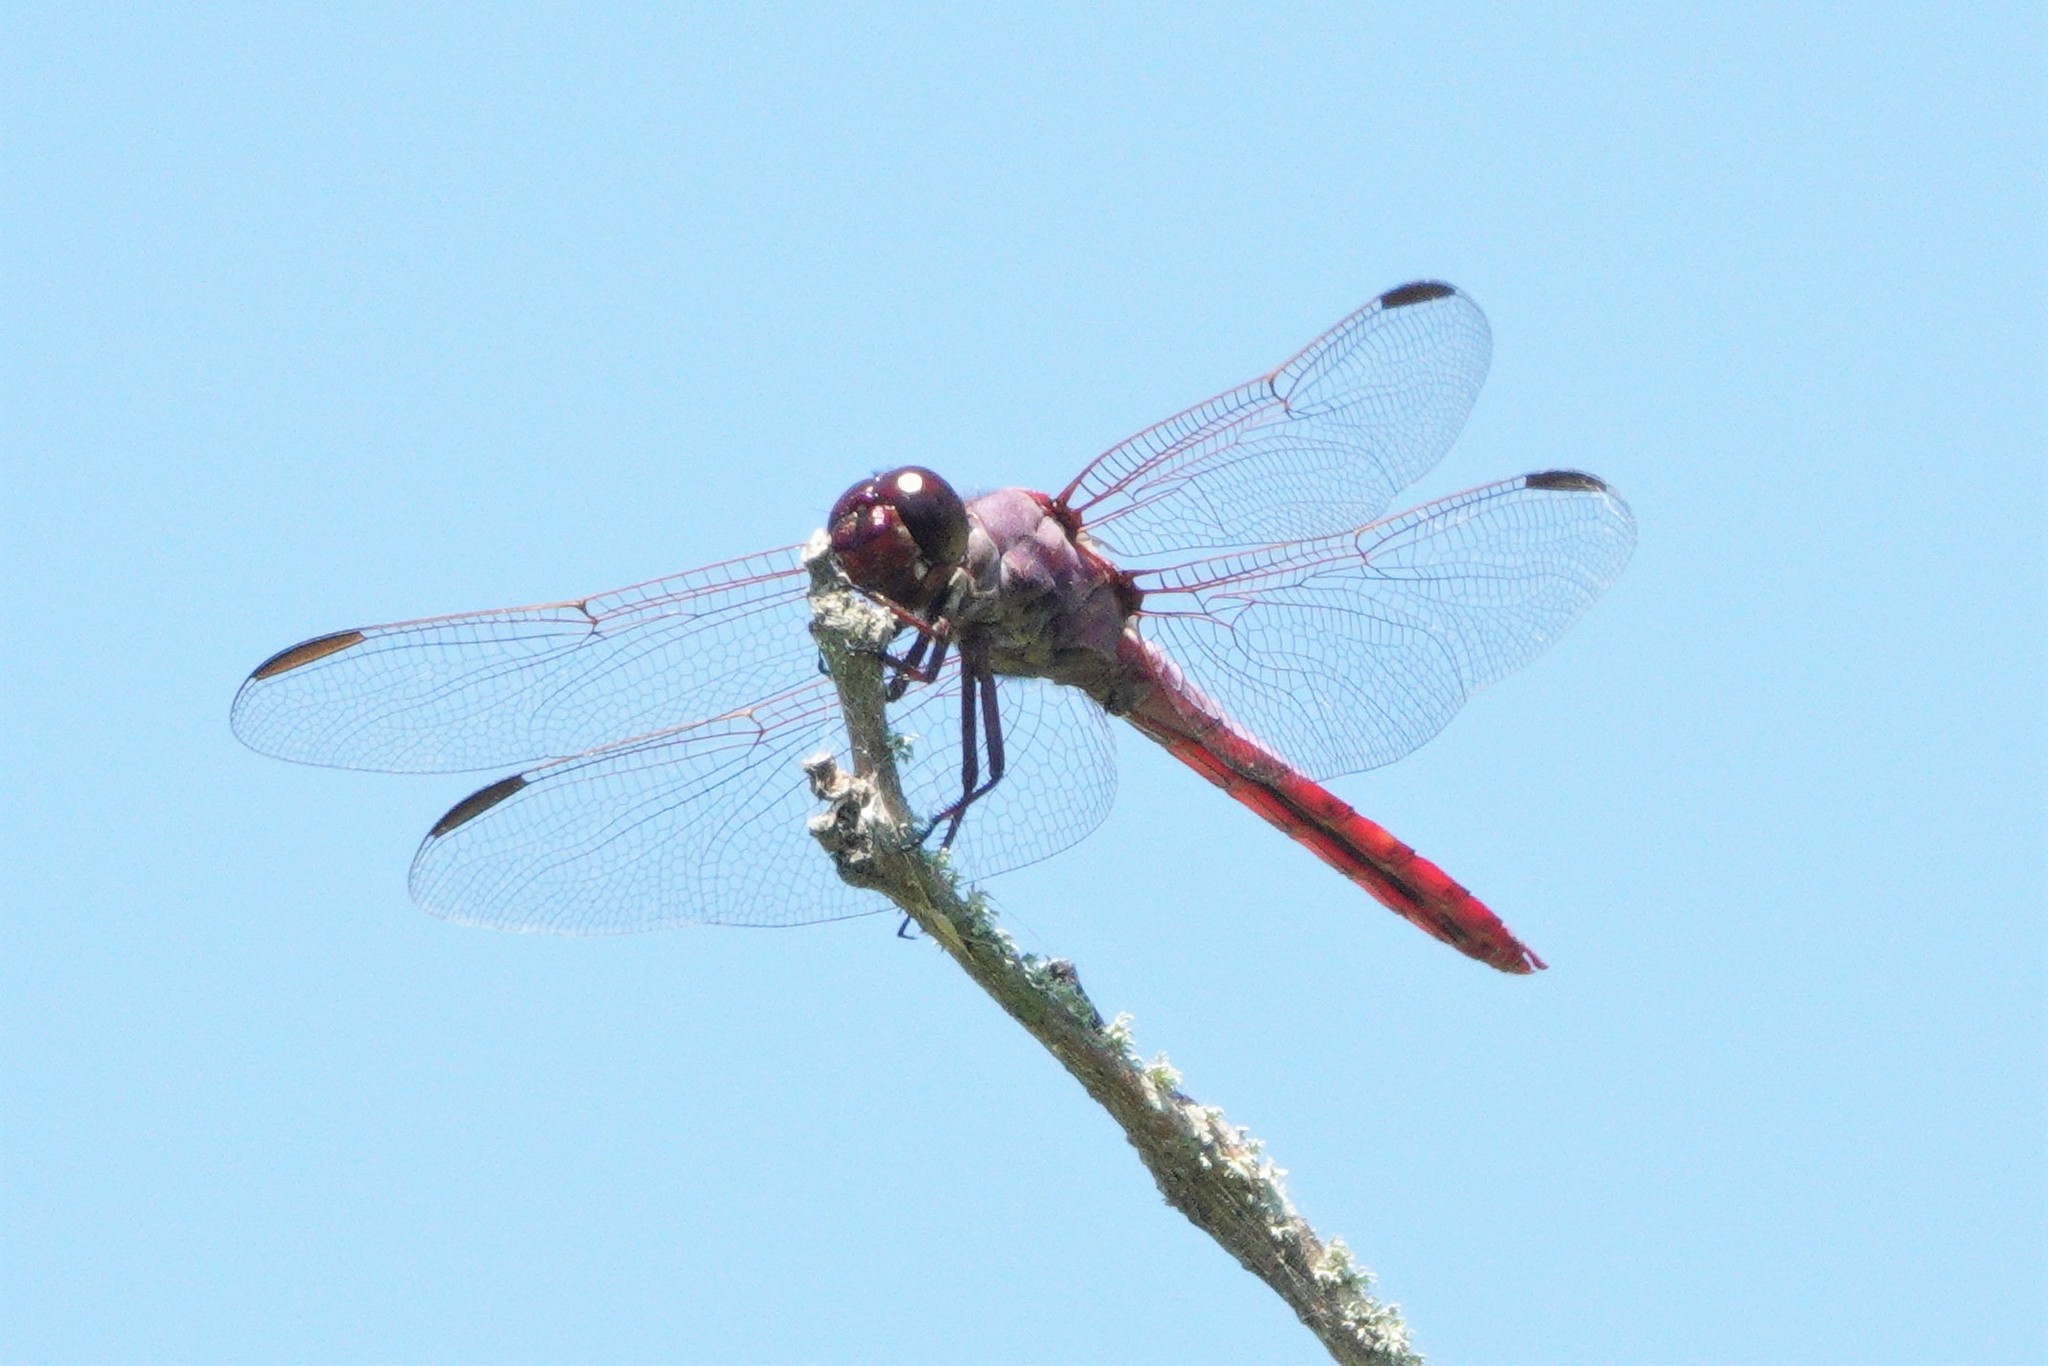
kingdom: Animalia
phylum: Arthropoda
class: Insecta
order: Odonata
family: Libellulidae
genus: Orthemis
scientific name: Orthemis ferruginea
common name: Roseate skimmer
